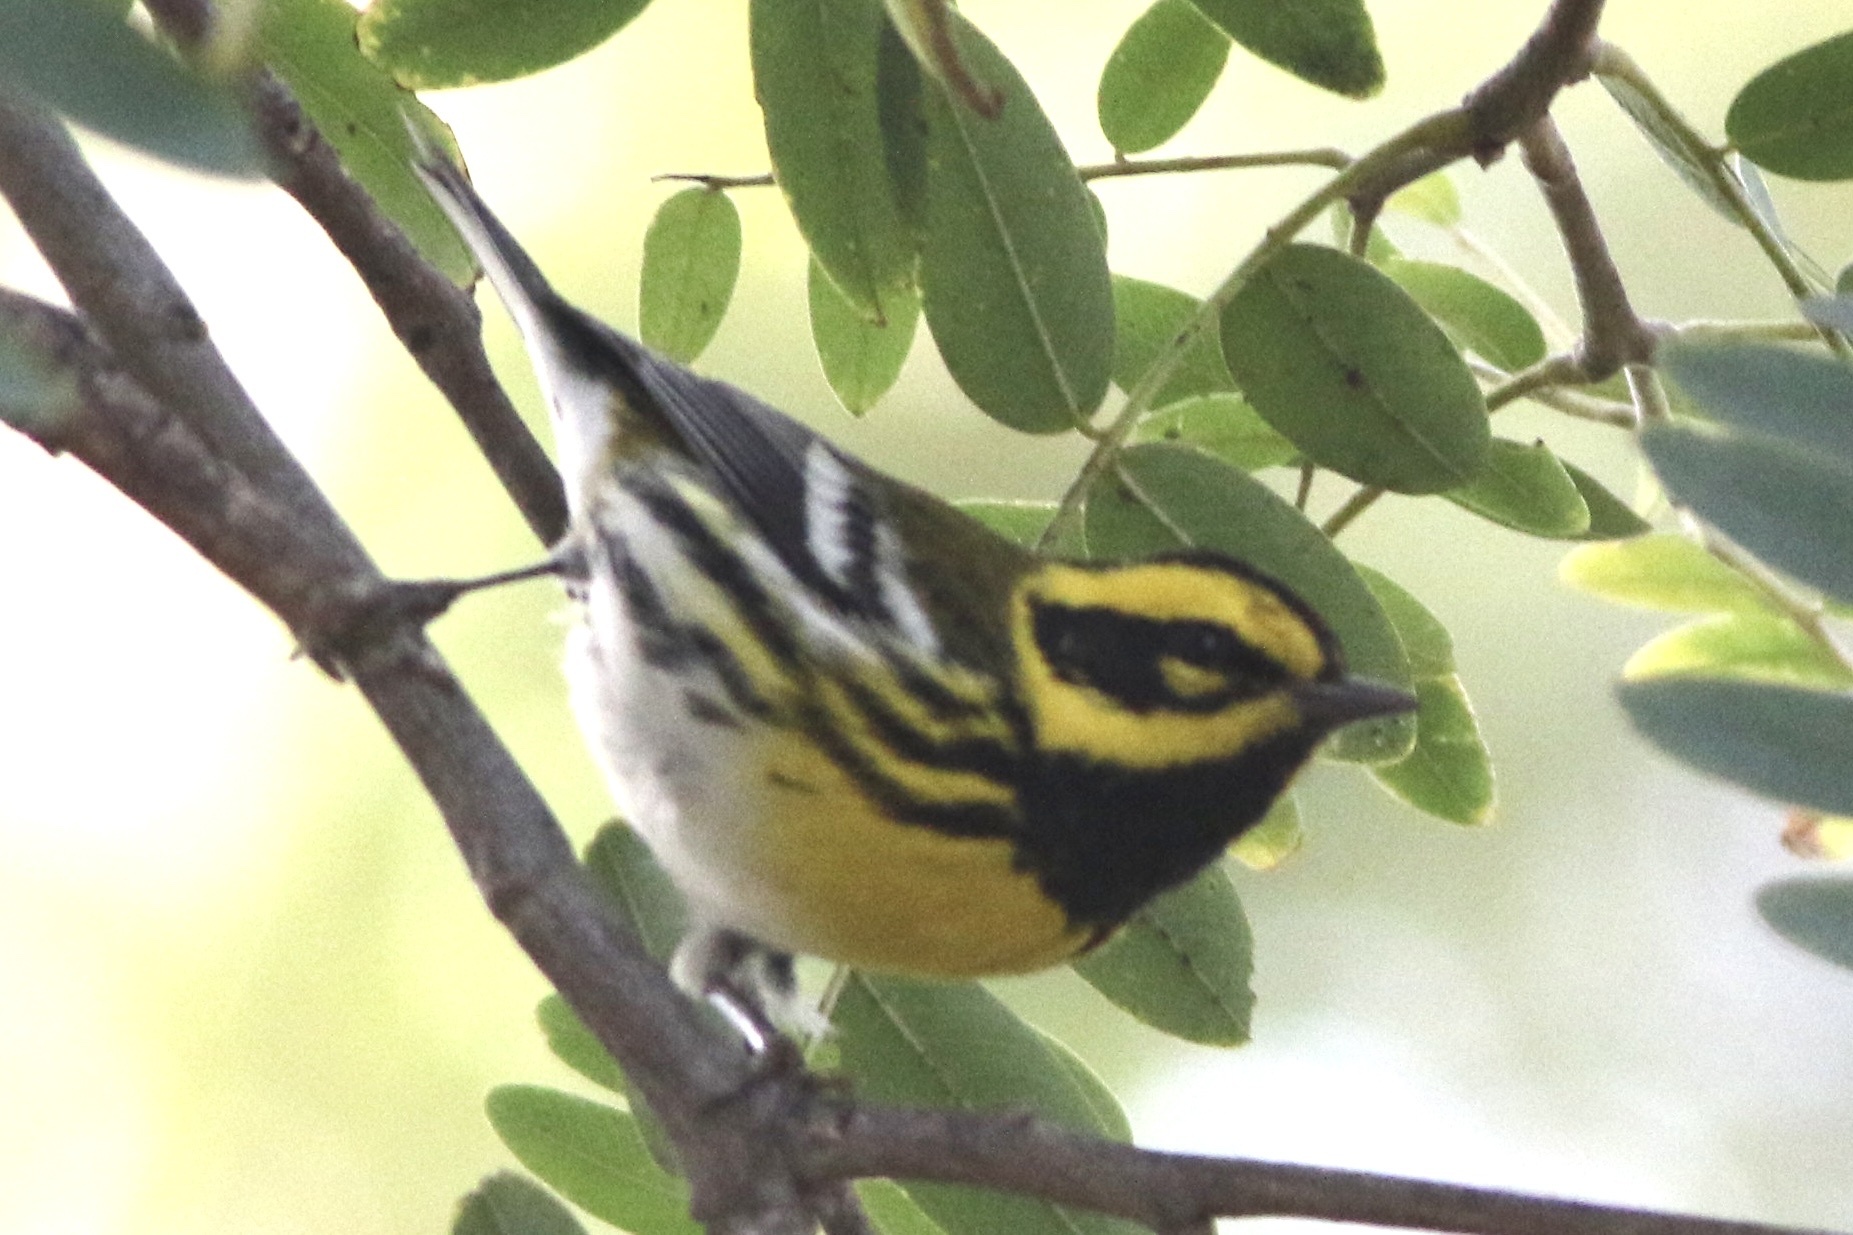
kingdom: Animalia
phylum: Chordata
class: Aves
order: Passeriformes
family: Parulidae
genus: Setophaga
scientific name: Setophaga townsendi
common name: Townsend's warbler
